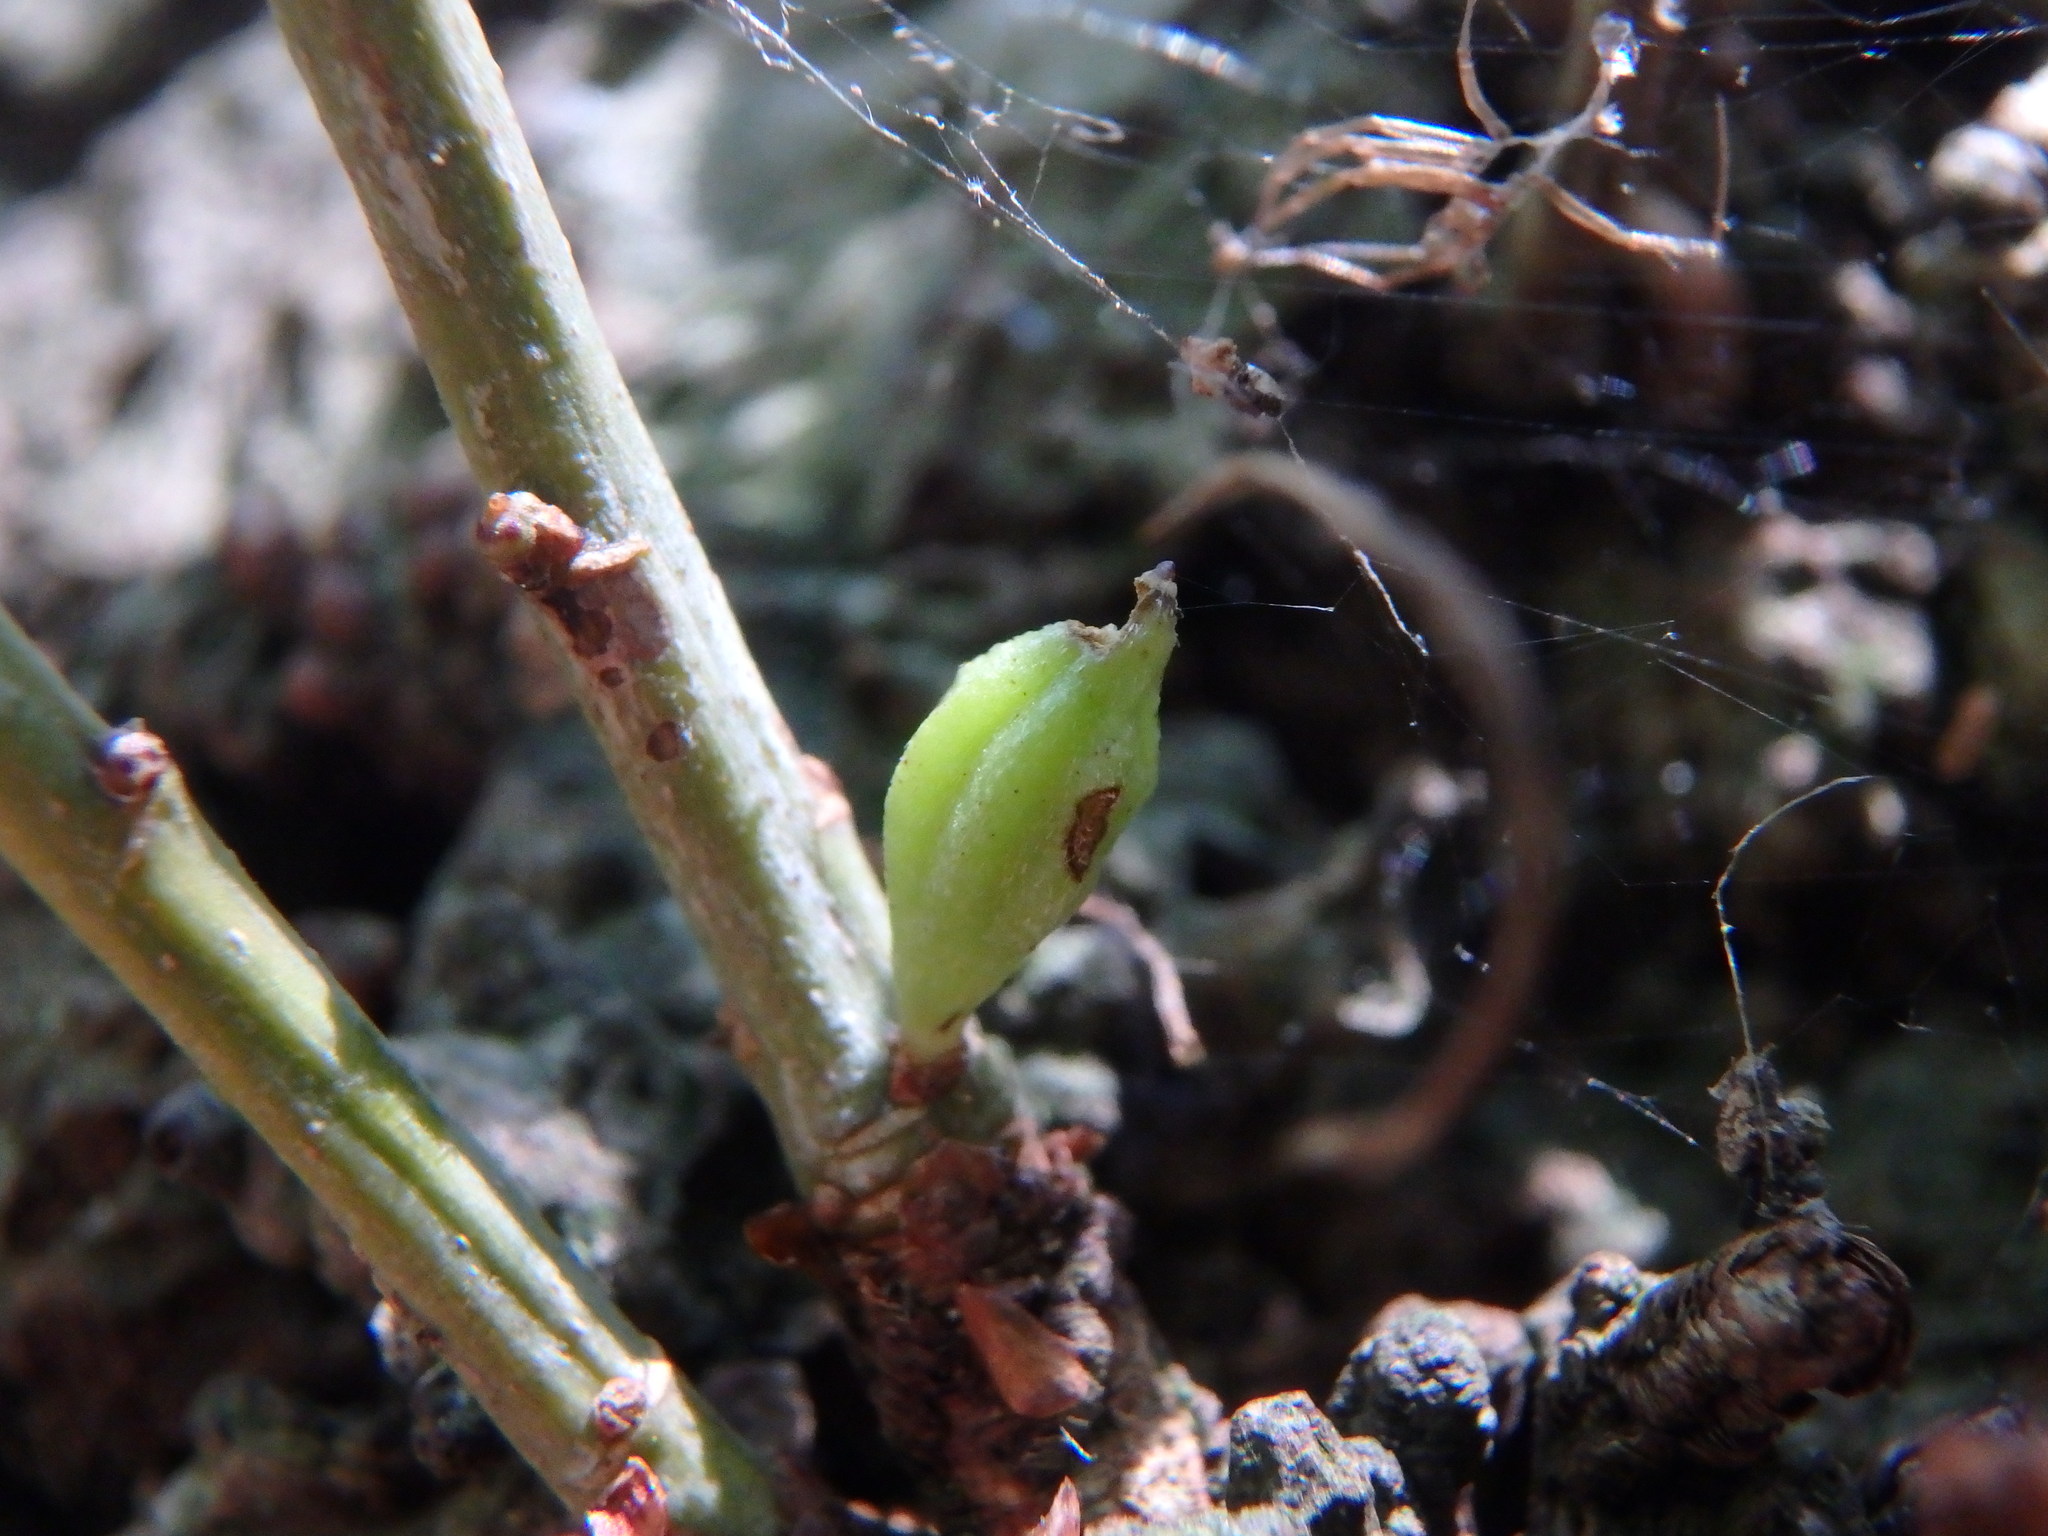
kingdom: Animalia
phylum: Arthropoda
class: Insecta
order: Hymenoptera
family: Cynipidae
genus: Andricus
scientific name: Andricus malpighii
